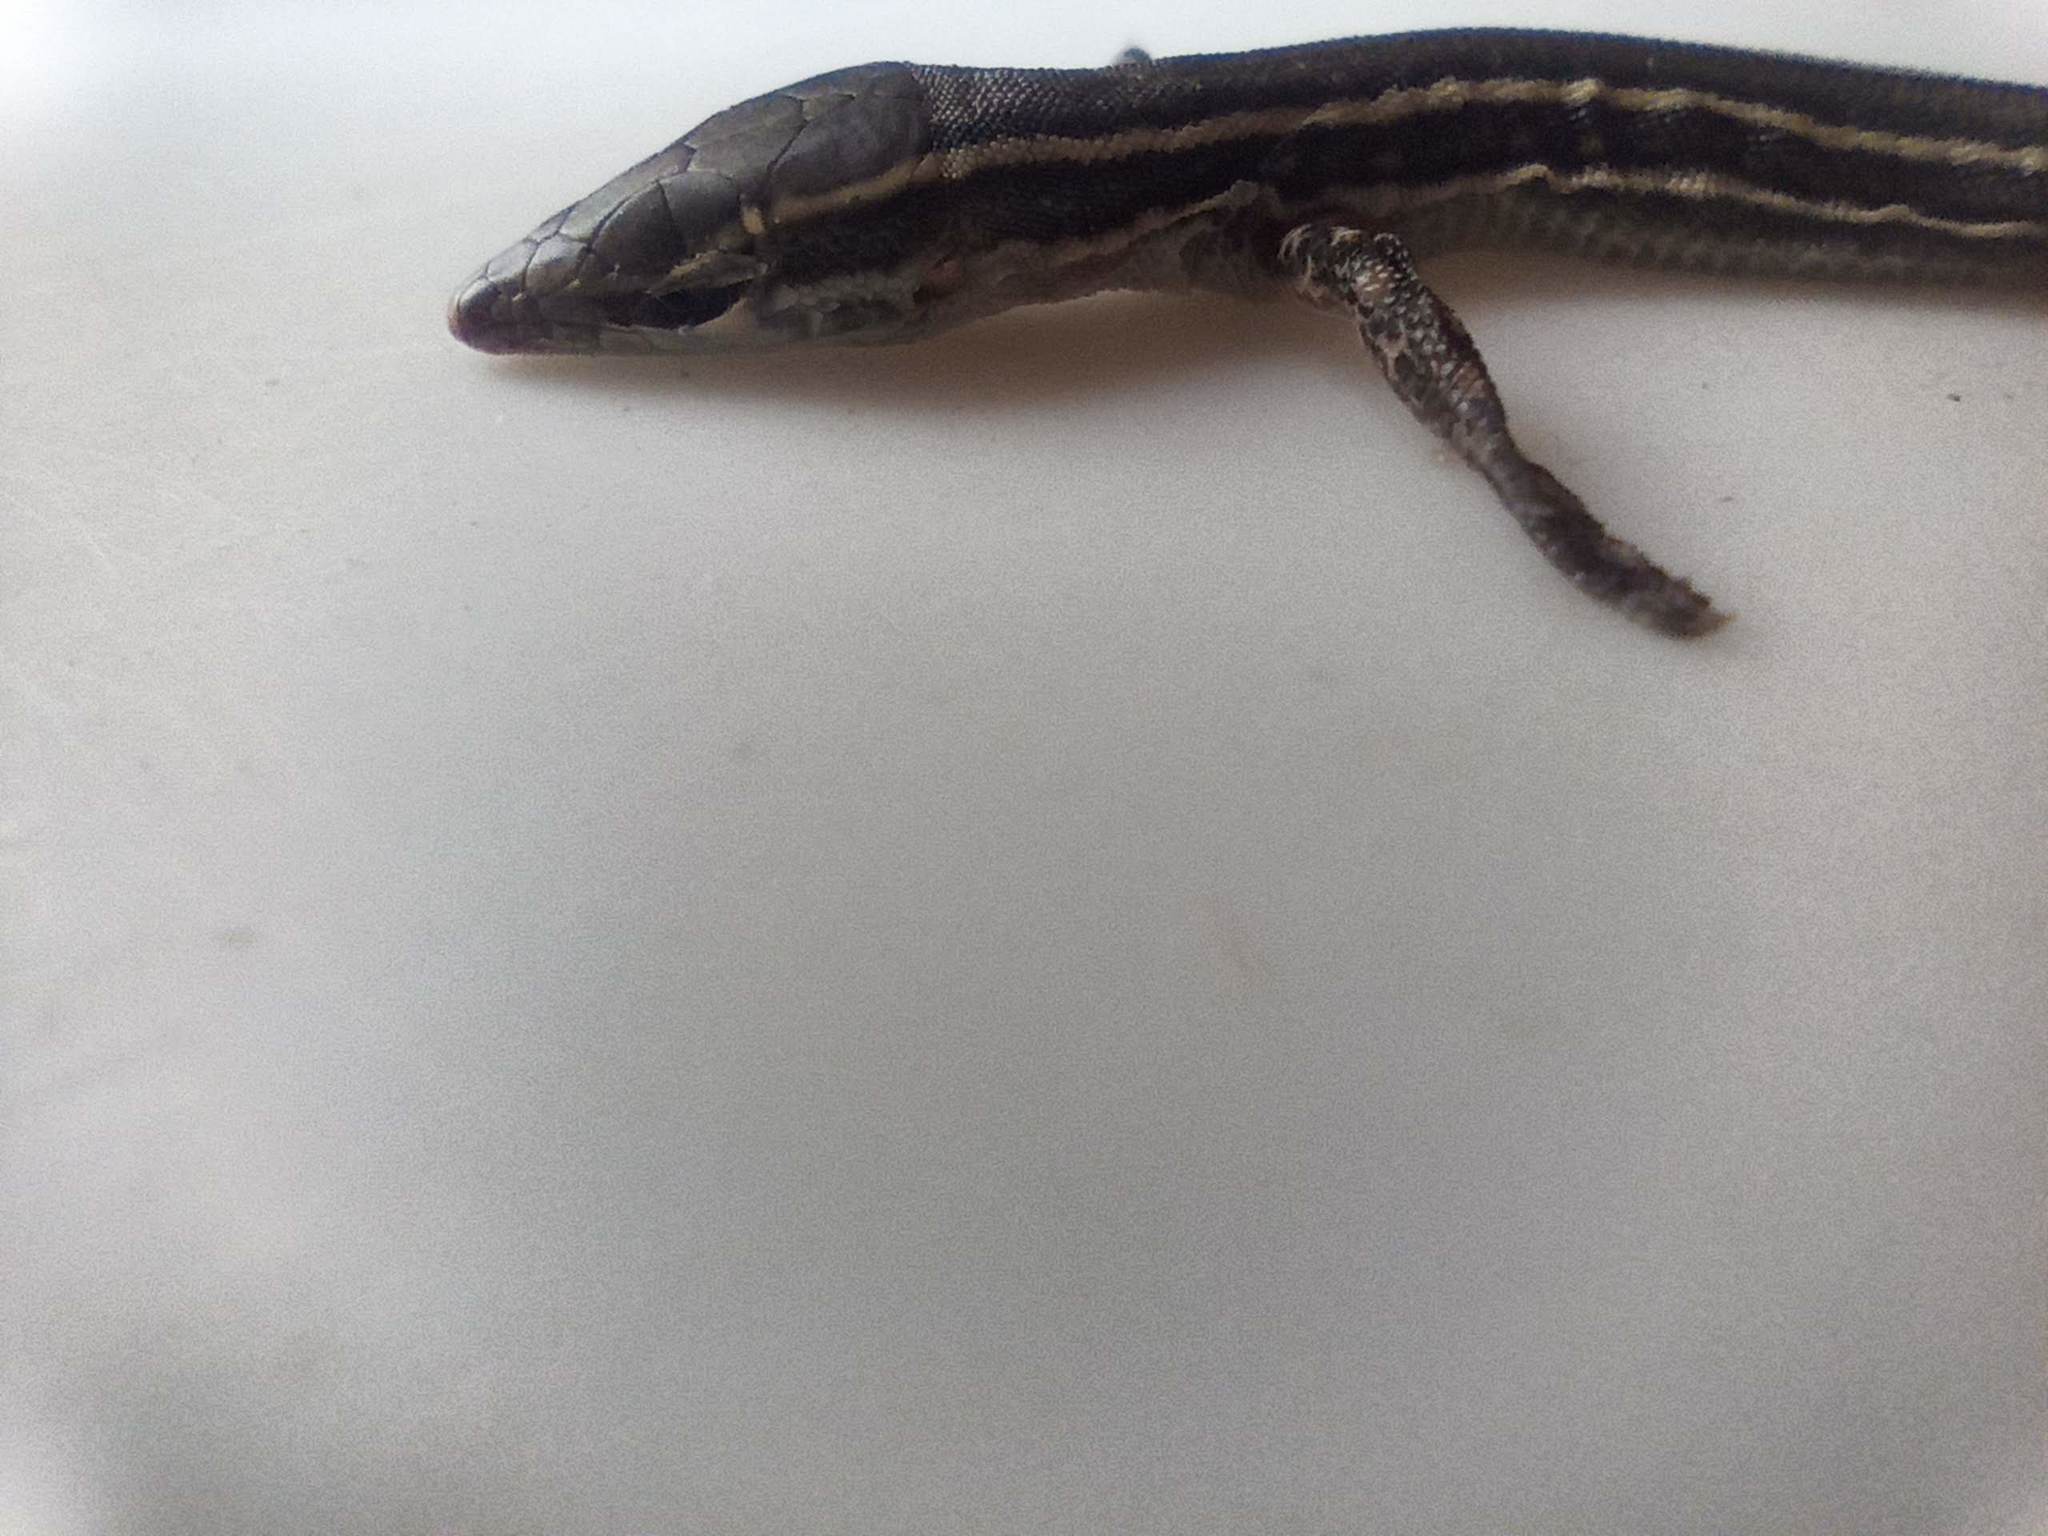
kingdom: Animalia
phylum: Chordata
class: Squamata
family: Lacertidae
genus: Gallotia
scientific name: Gallotia atlantica
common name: Atlantic lizard
